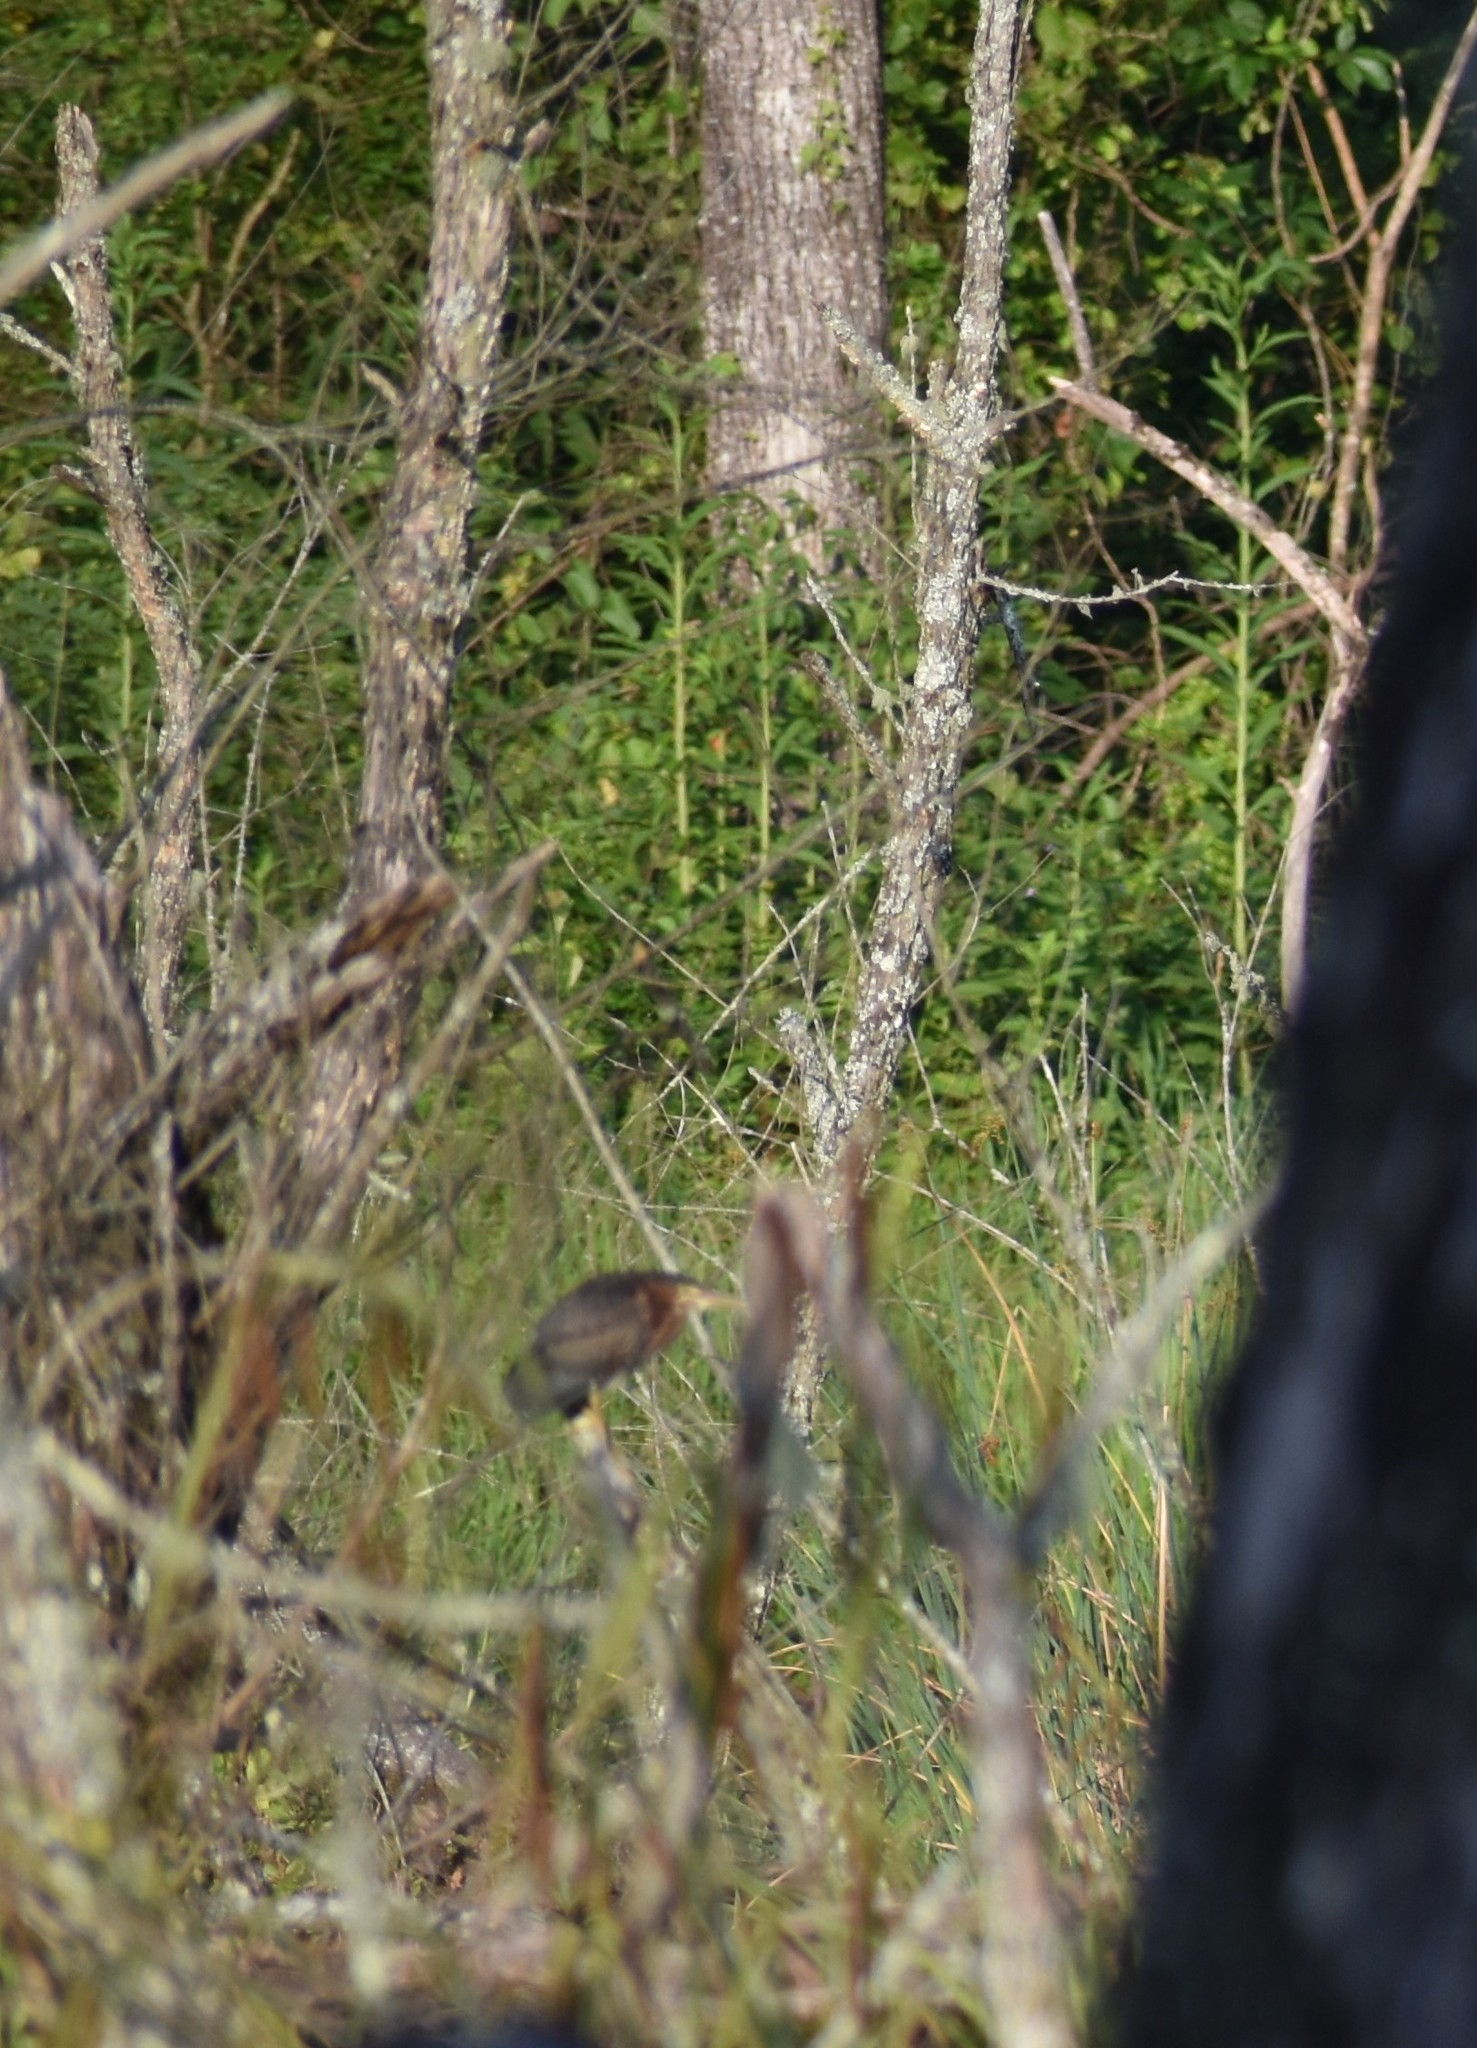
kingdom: Animalia
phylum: Chordata
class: Aves
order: Pelecaniformes
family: Ardeidae
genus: Butorides
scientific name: Butorides virescens
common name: Green heron
